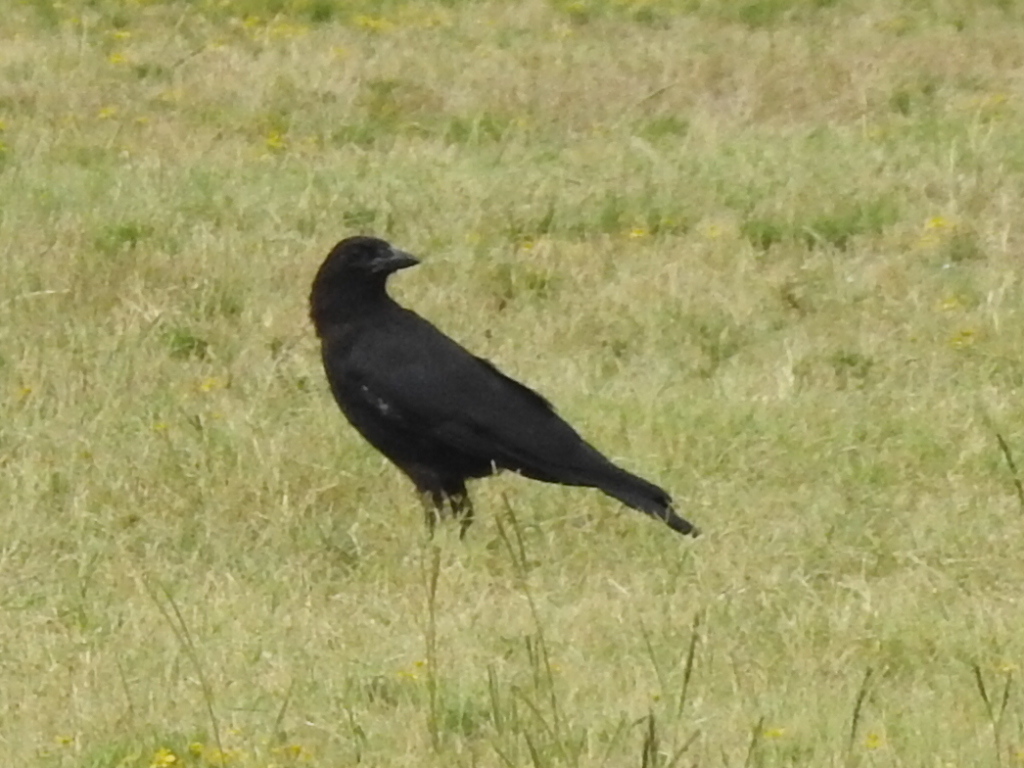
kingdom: Animalia
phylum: Chordata
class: Aves
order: Passeriformes
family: Corvidae
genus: Corvus
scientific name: Corvus brachyrhynchos
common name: American crow
